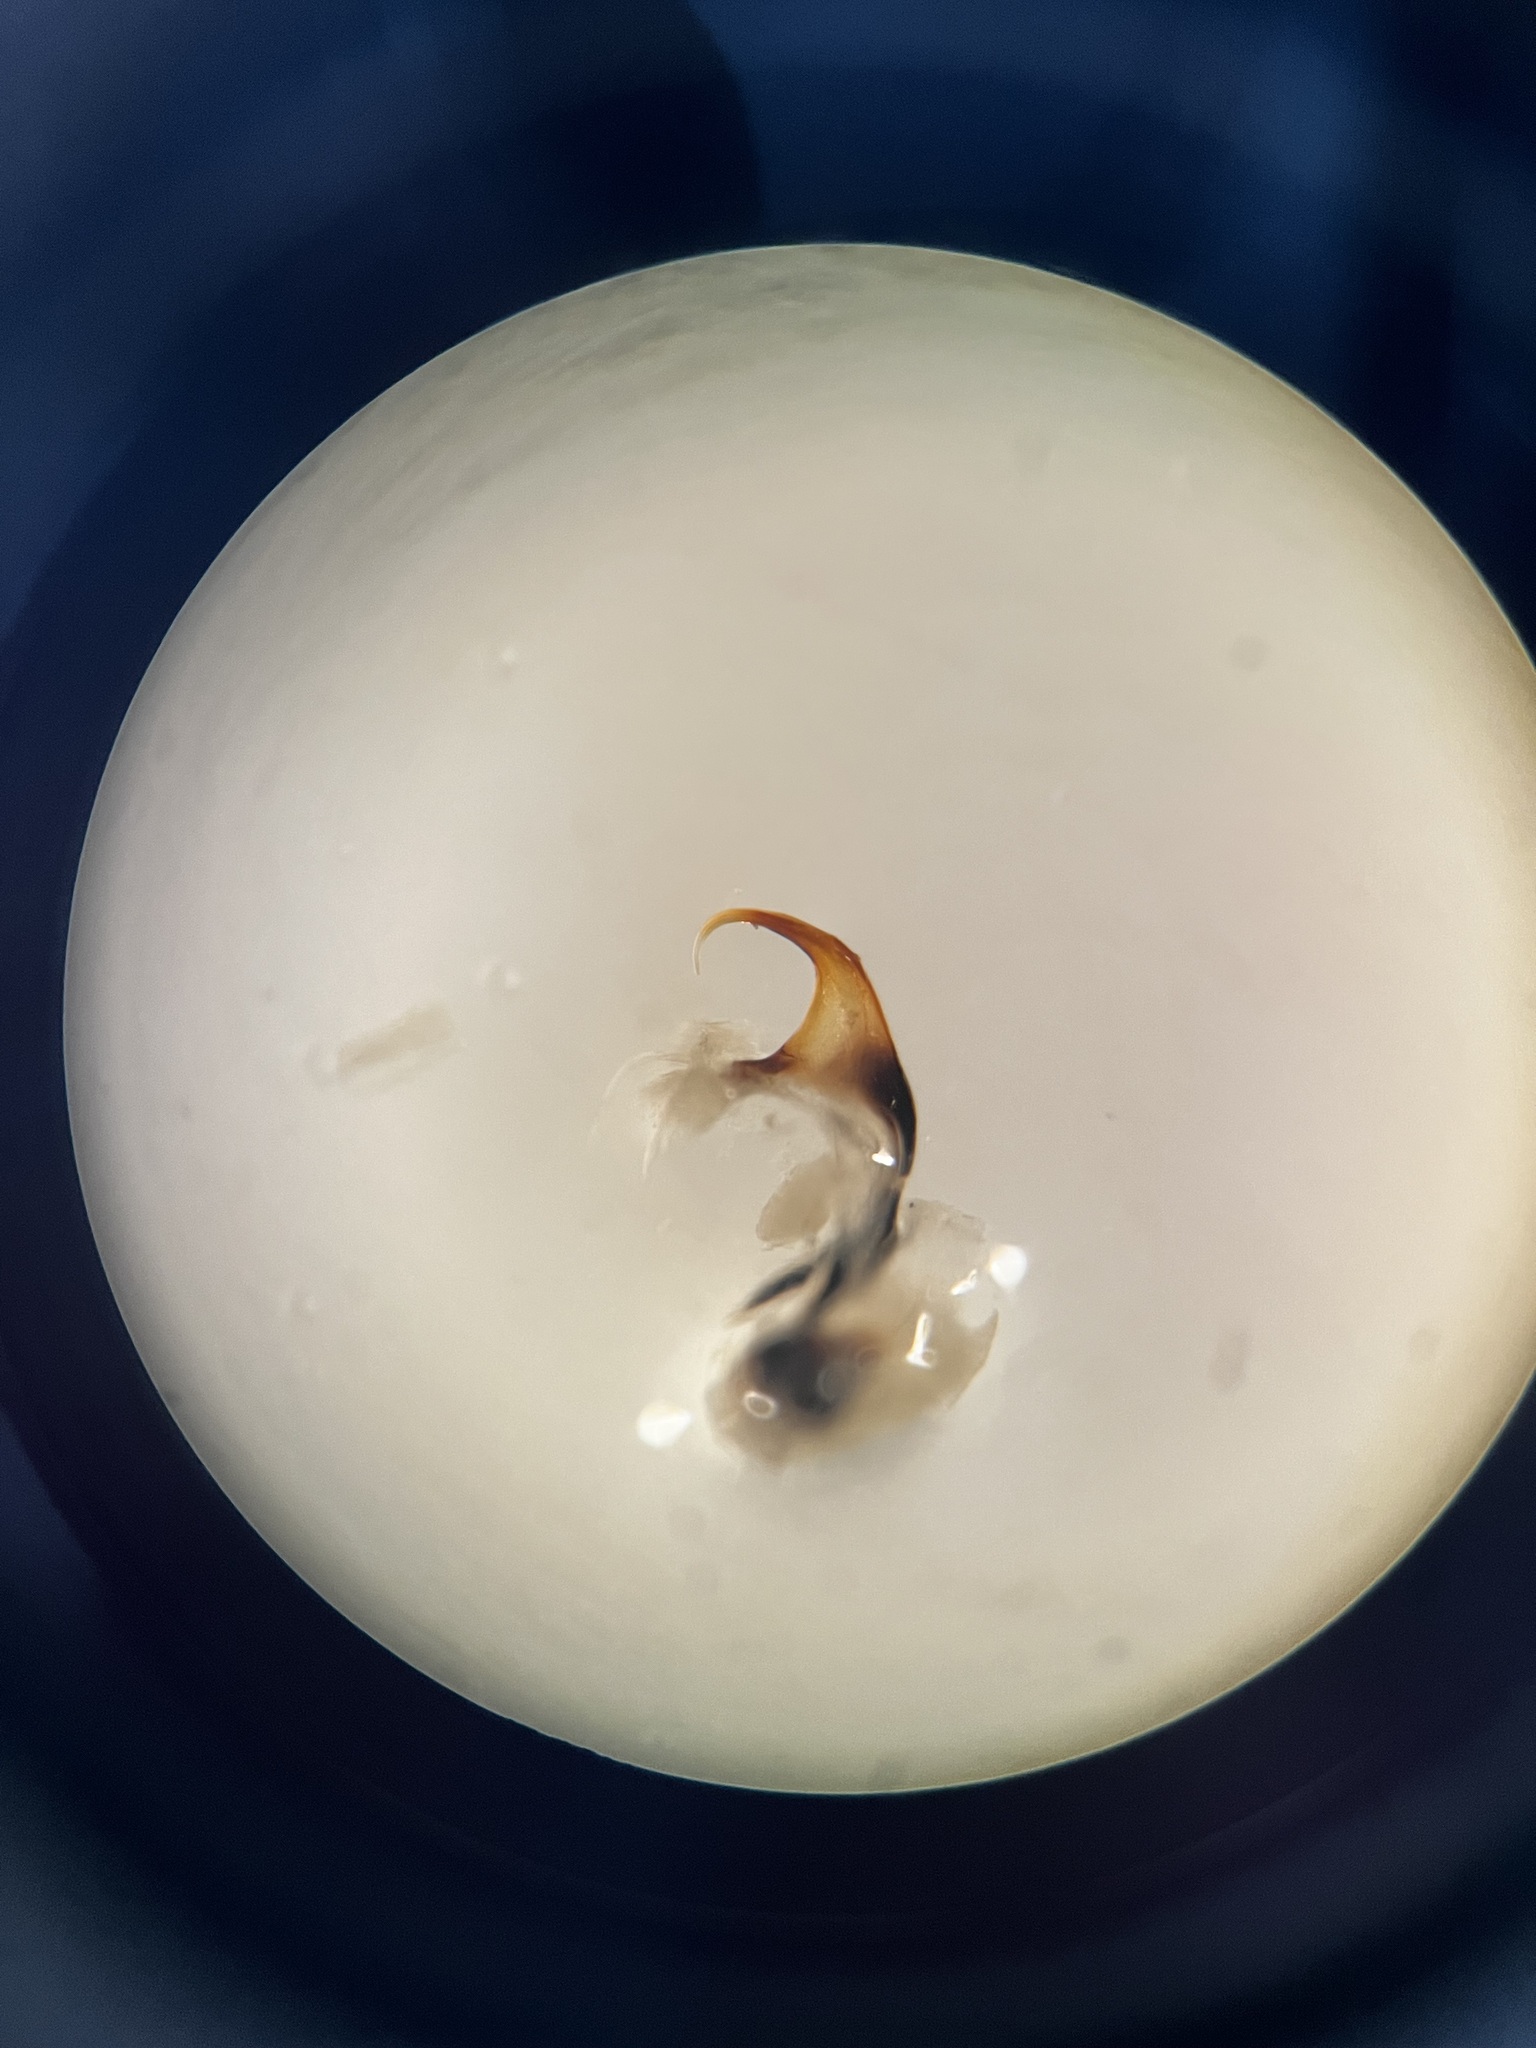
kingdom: Animalia
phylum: Arthropoda
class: Insecta
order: Hemiptera
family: Cicadellidae
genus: Graphocraerus
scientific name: Graphocraerus ventralis
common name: Leafhopper
